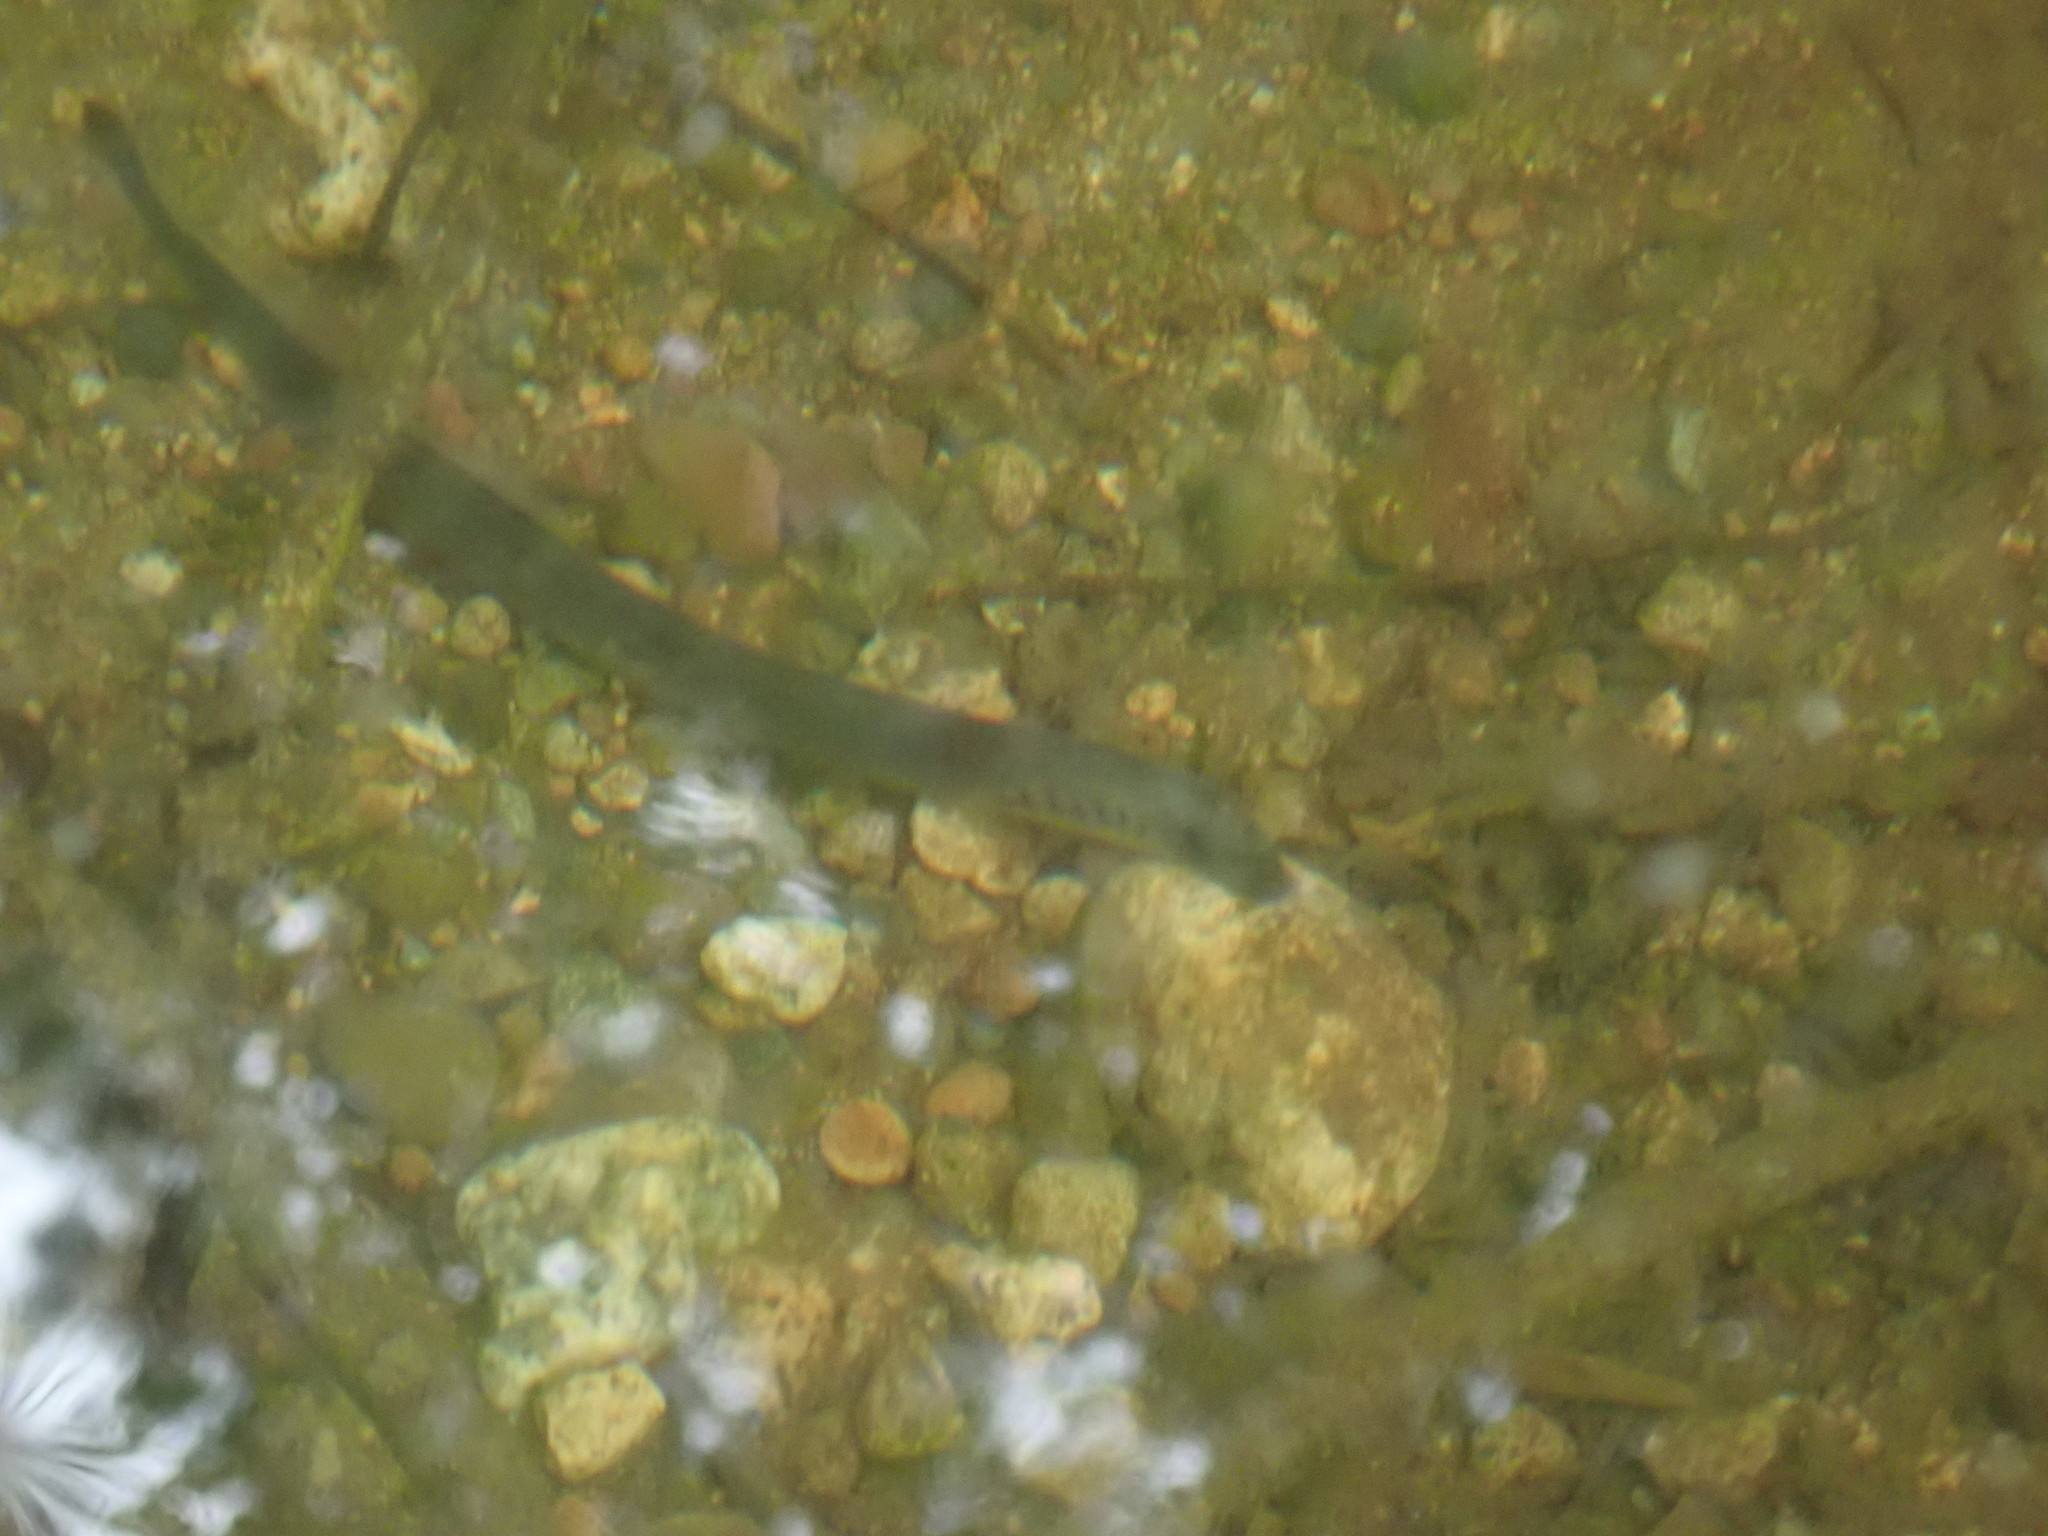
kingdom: Animalia
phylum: Chordata
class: Petromyzonti
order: Petromyzontiformes
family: Petromyzontidae
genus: Lampetra
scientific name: Lampetra richardsoni
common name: Western brook lamprey
